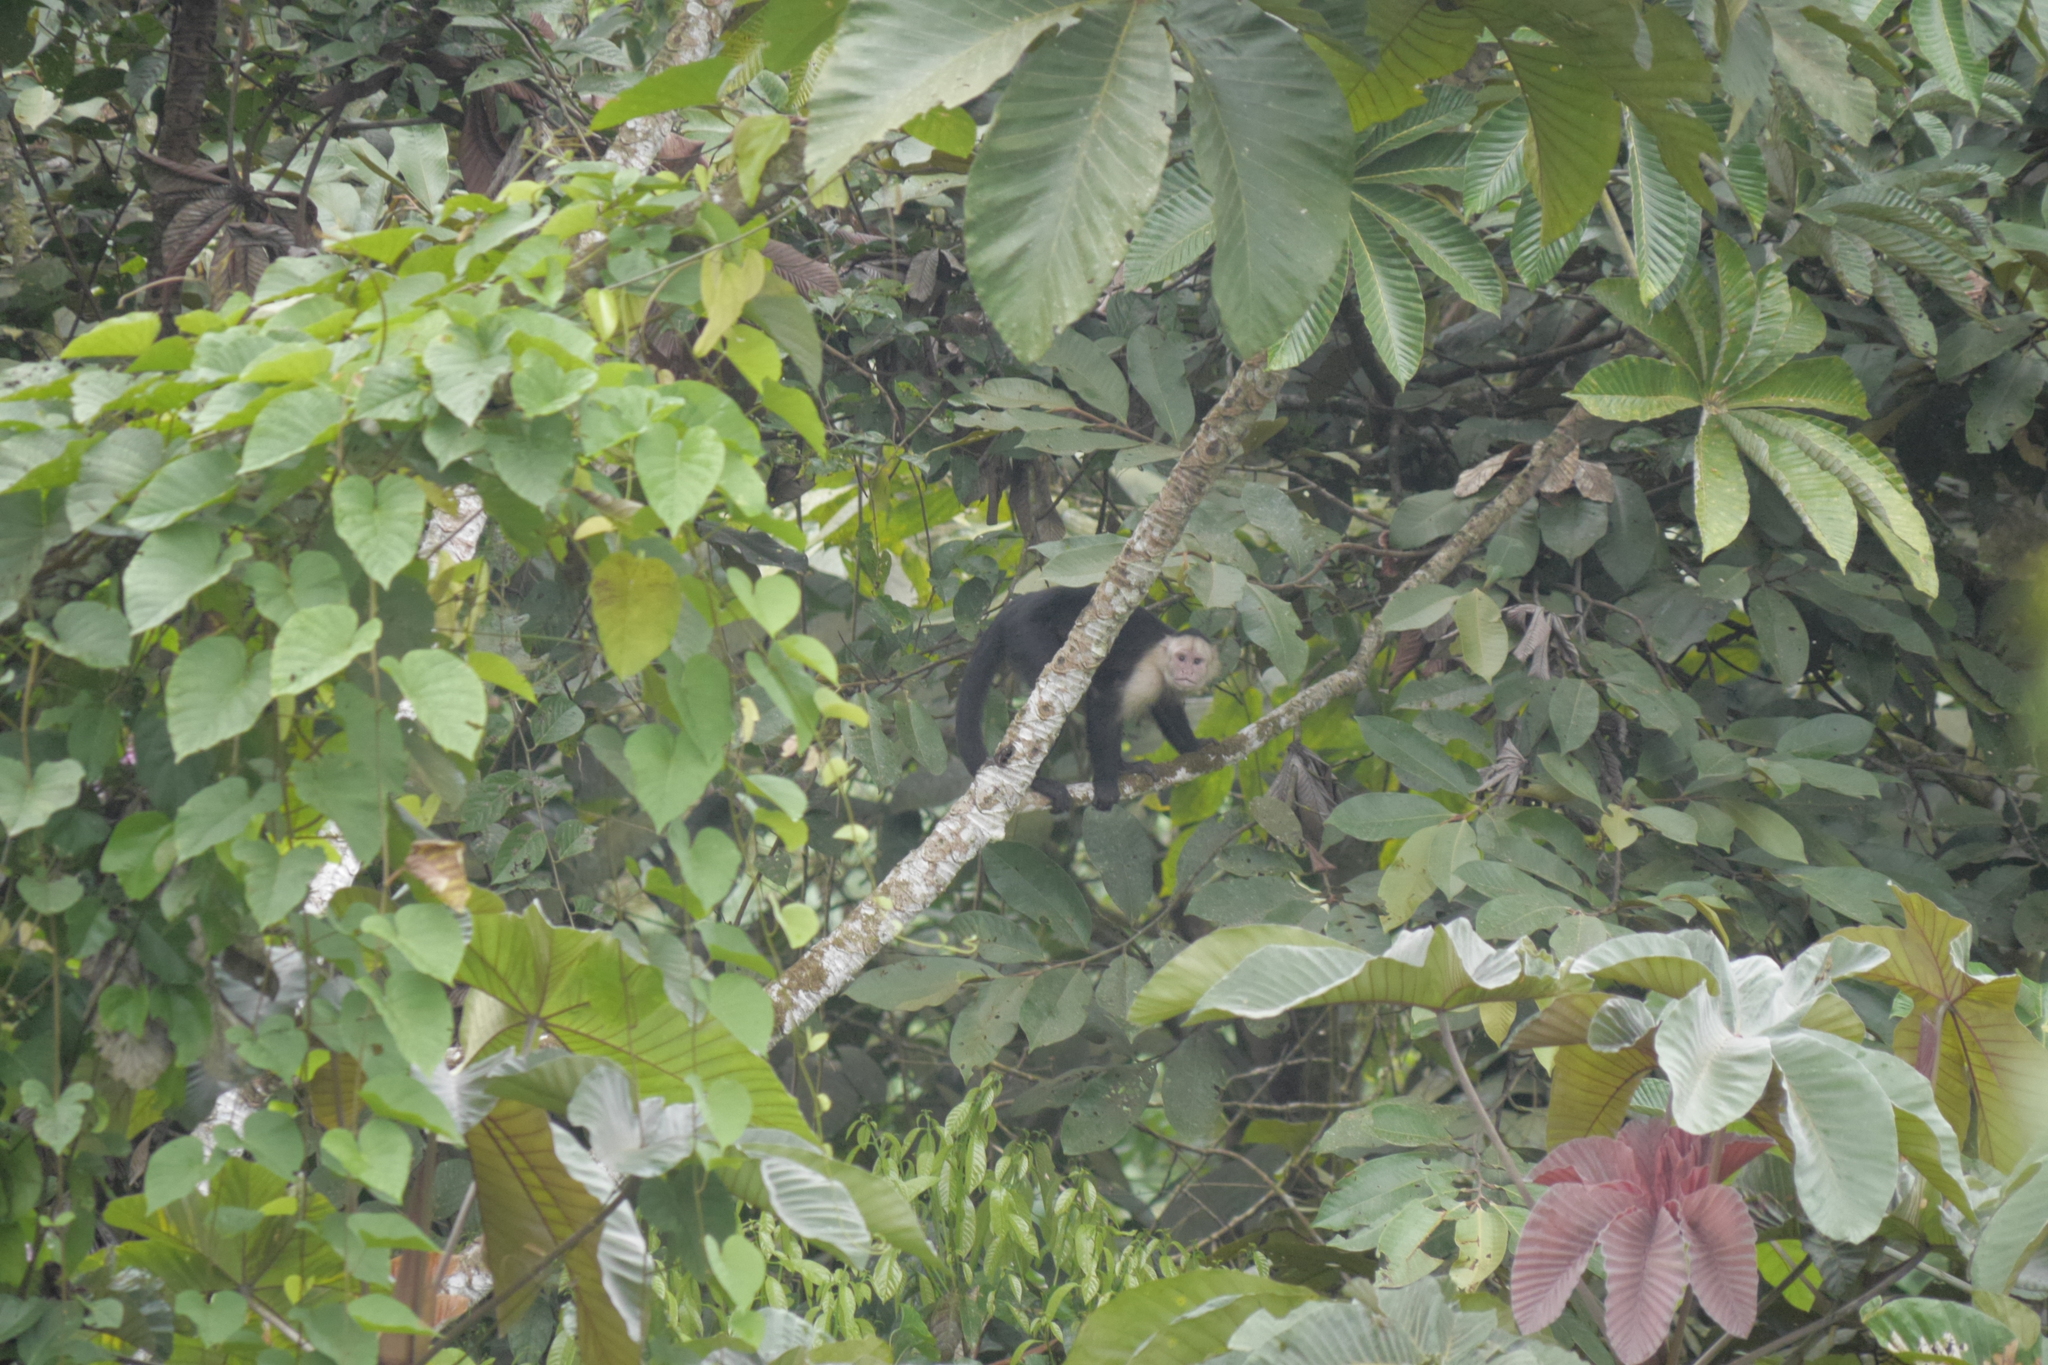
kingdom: Animalia
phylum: Chordata
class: Mammalia
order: Primates
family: Cebidae
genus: Cebus
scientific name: Cebus capucinus
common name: White-headed capuchin
